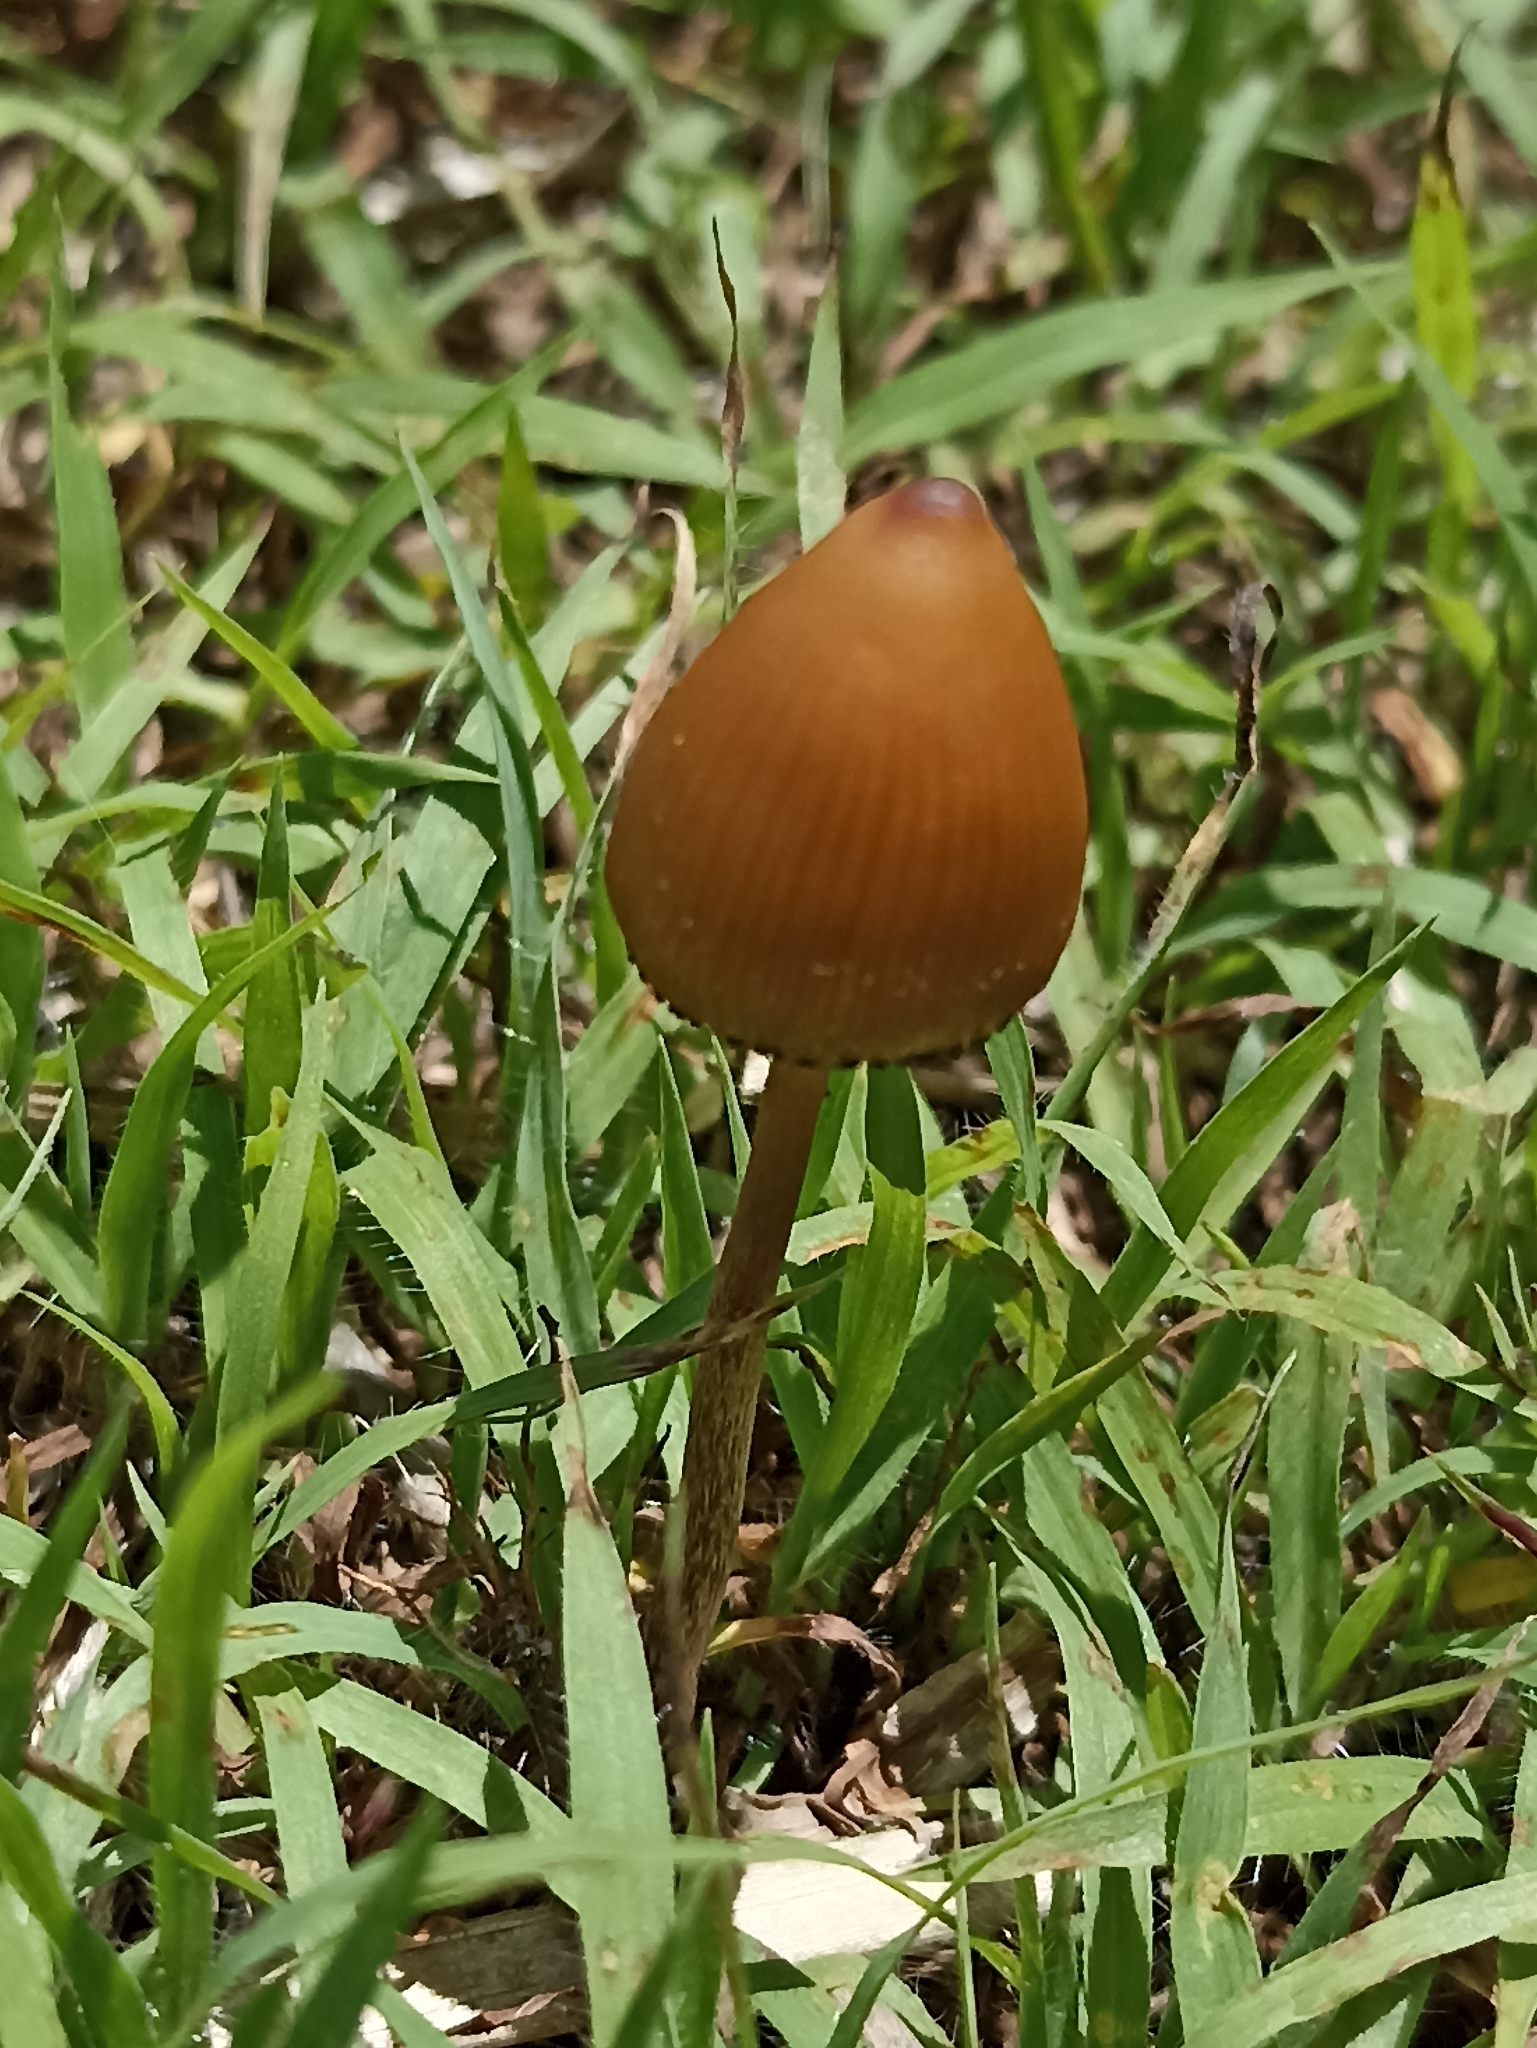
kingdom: Fungi
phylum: Basidiomycota
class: Agaricomycetes
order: Agaricales
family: Hymenogastraceae
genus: Psilocybe
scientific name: Psilocybe mexicana
